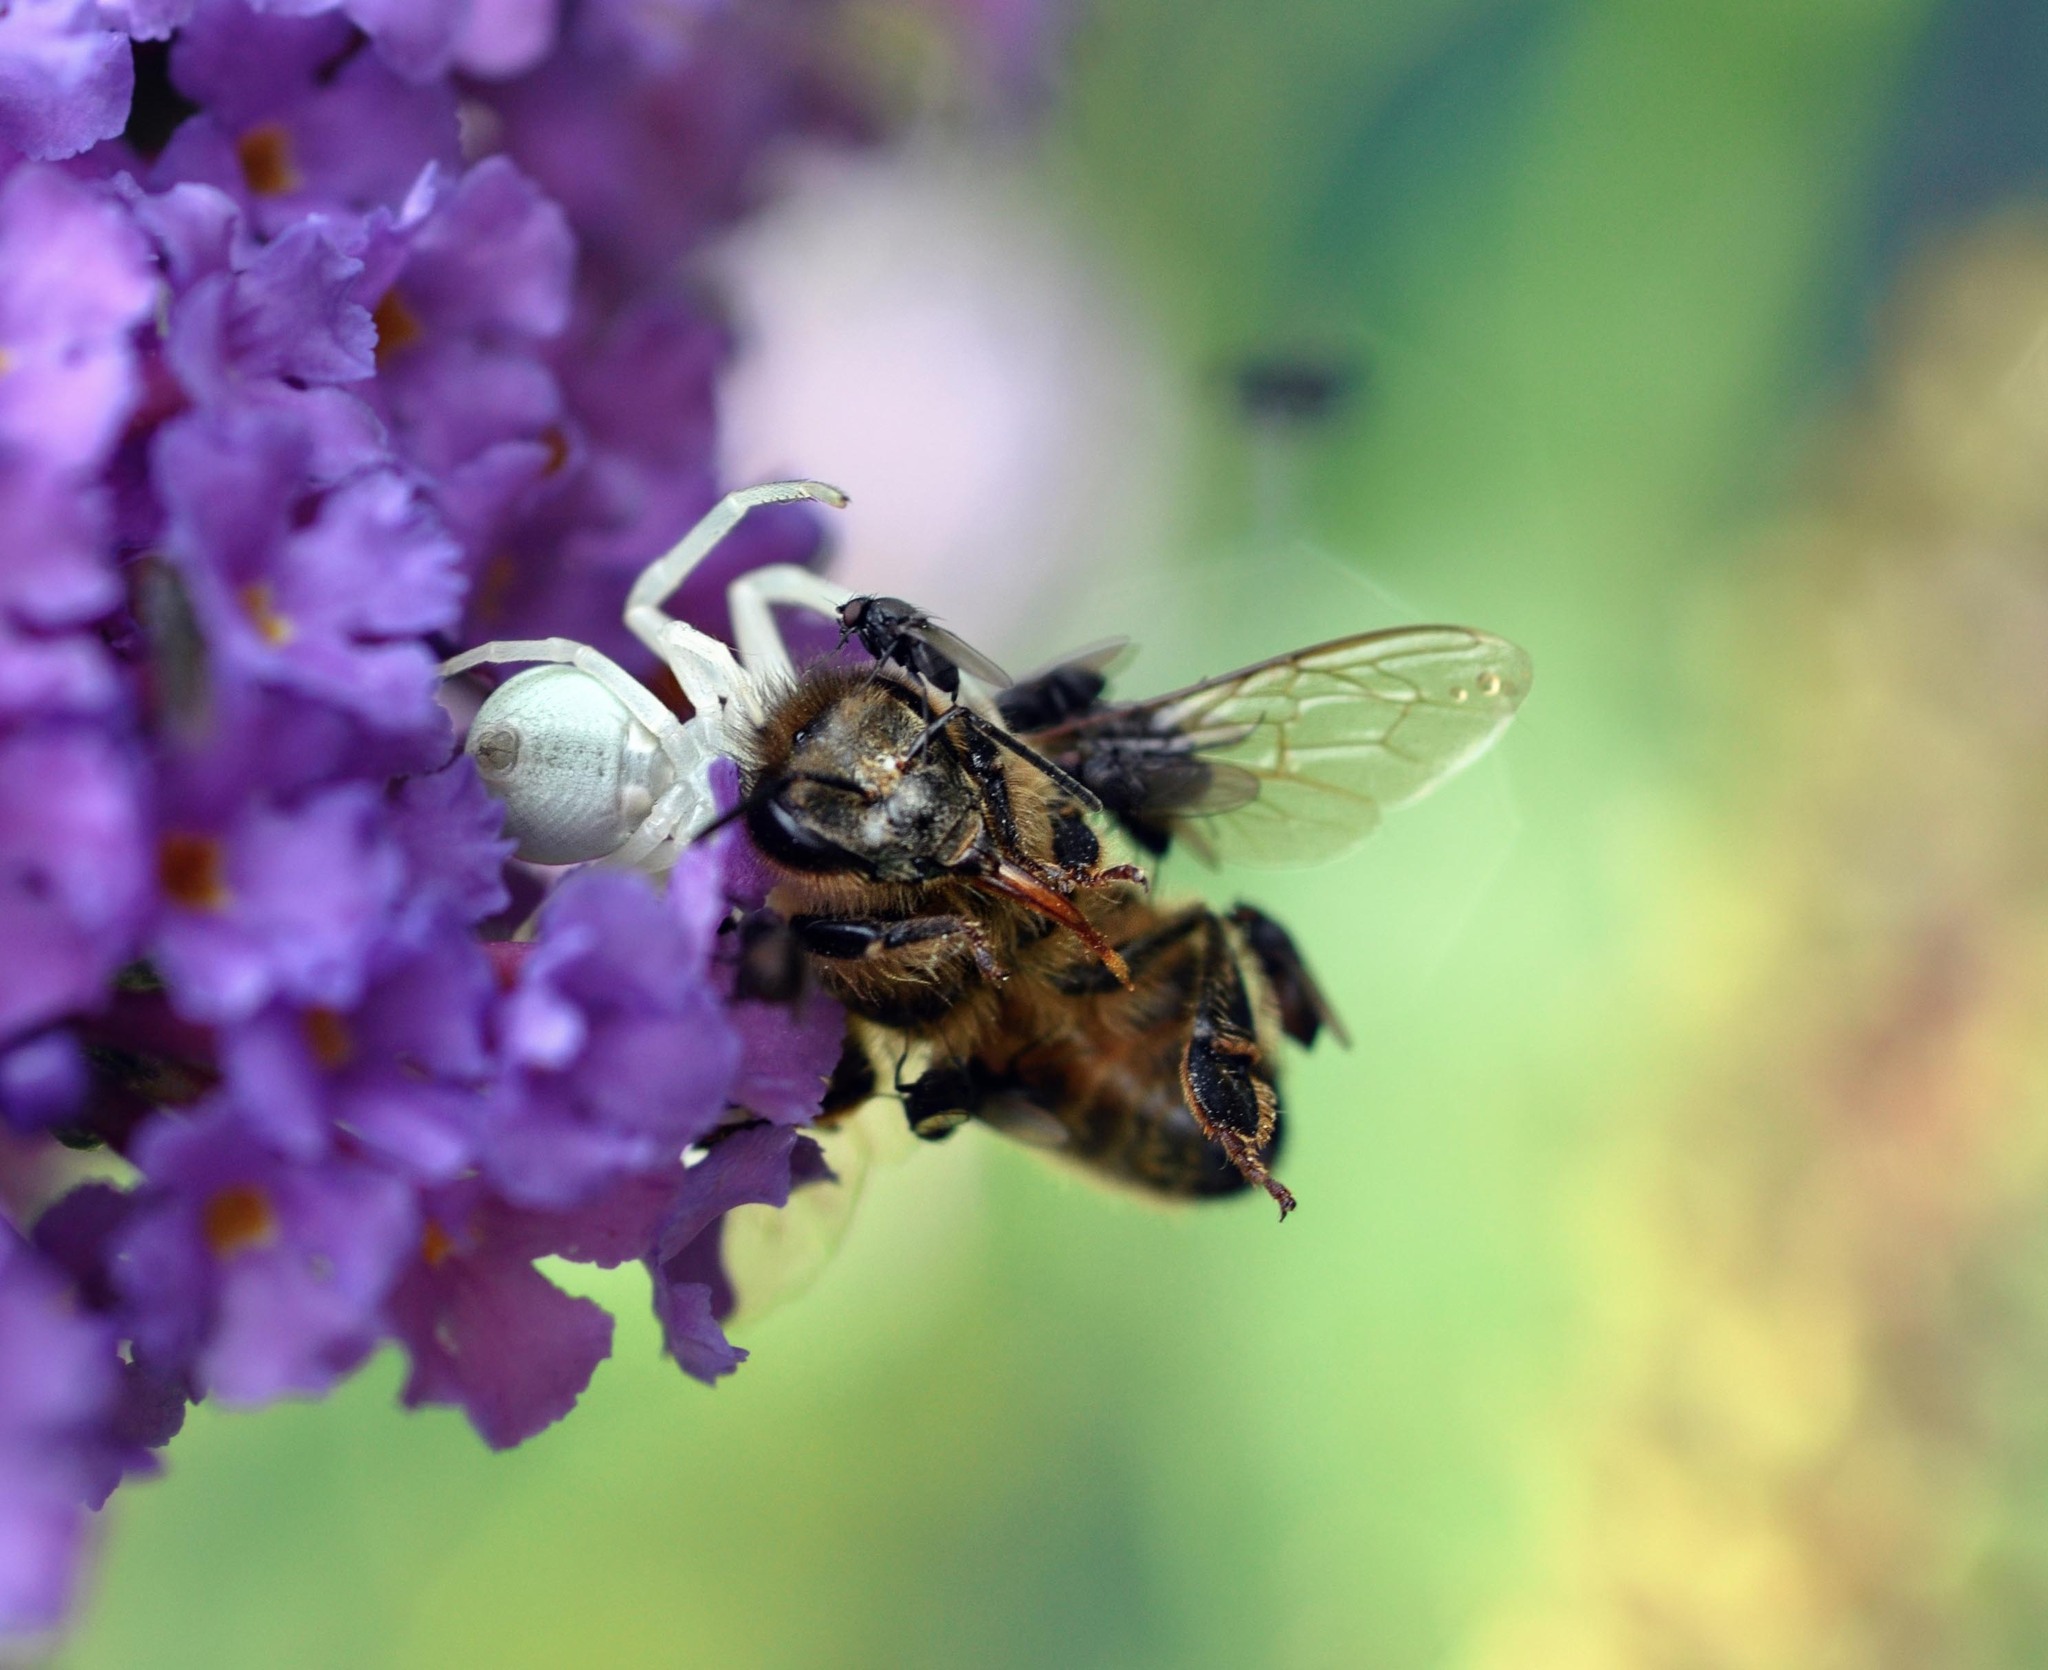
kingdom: Animalia
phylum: Arthropoda
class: Arachnida
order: Araneae
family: Thomisidae
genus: Misumena
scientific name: Misumena vatia
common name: Goldenrod crab spider
